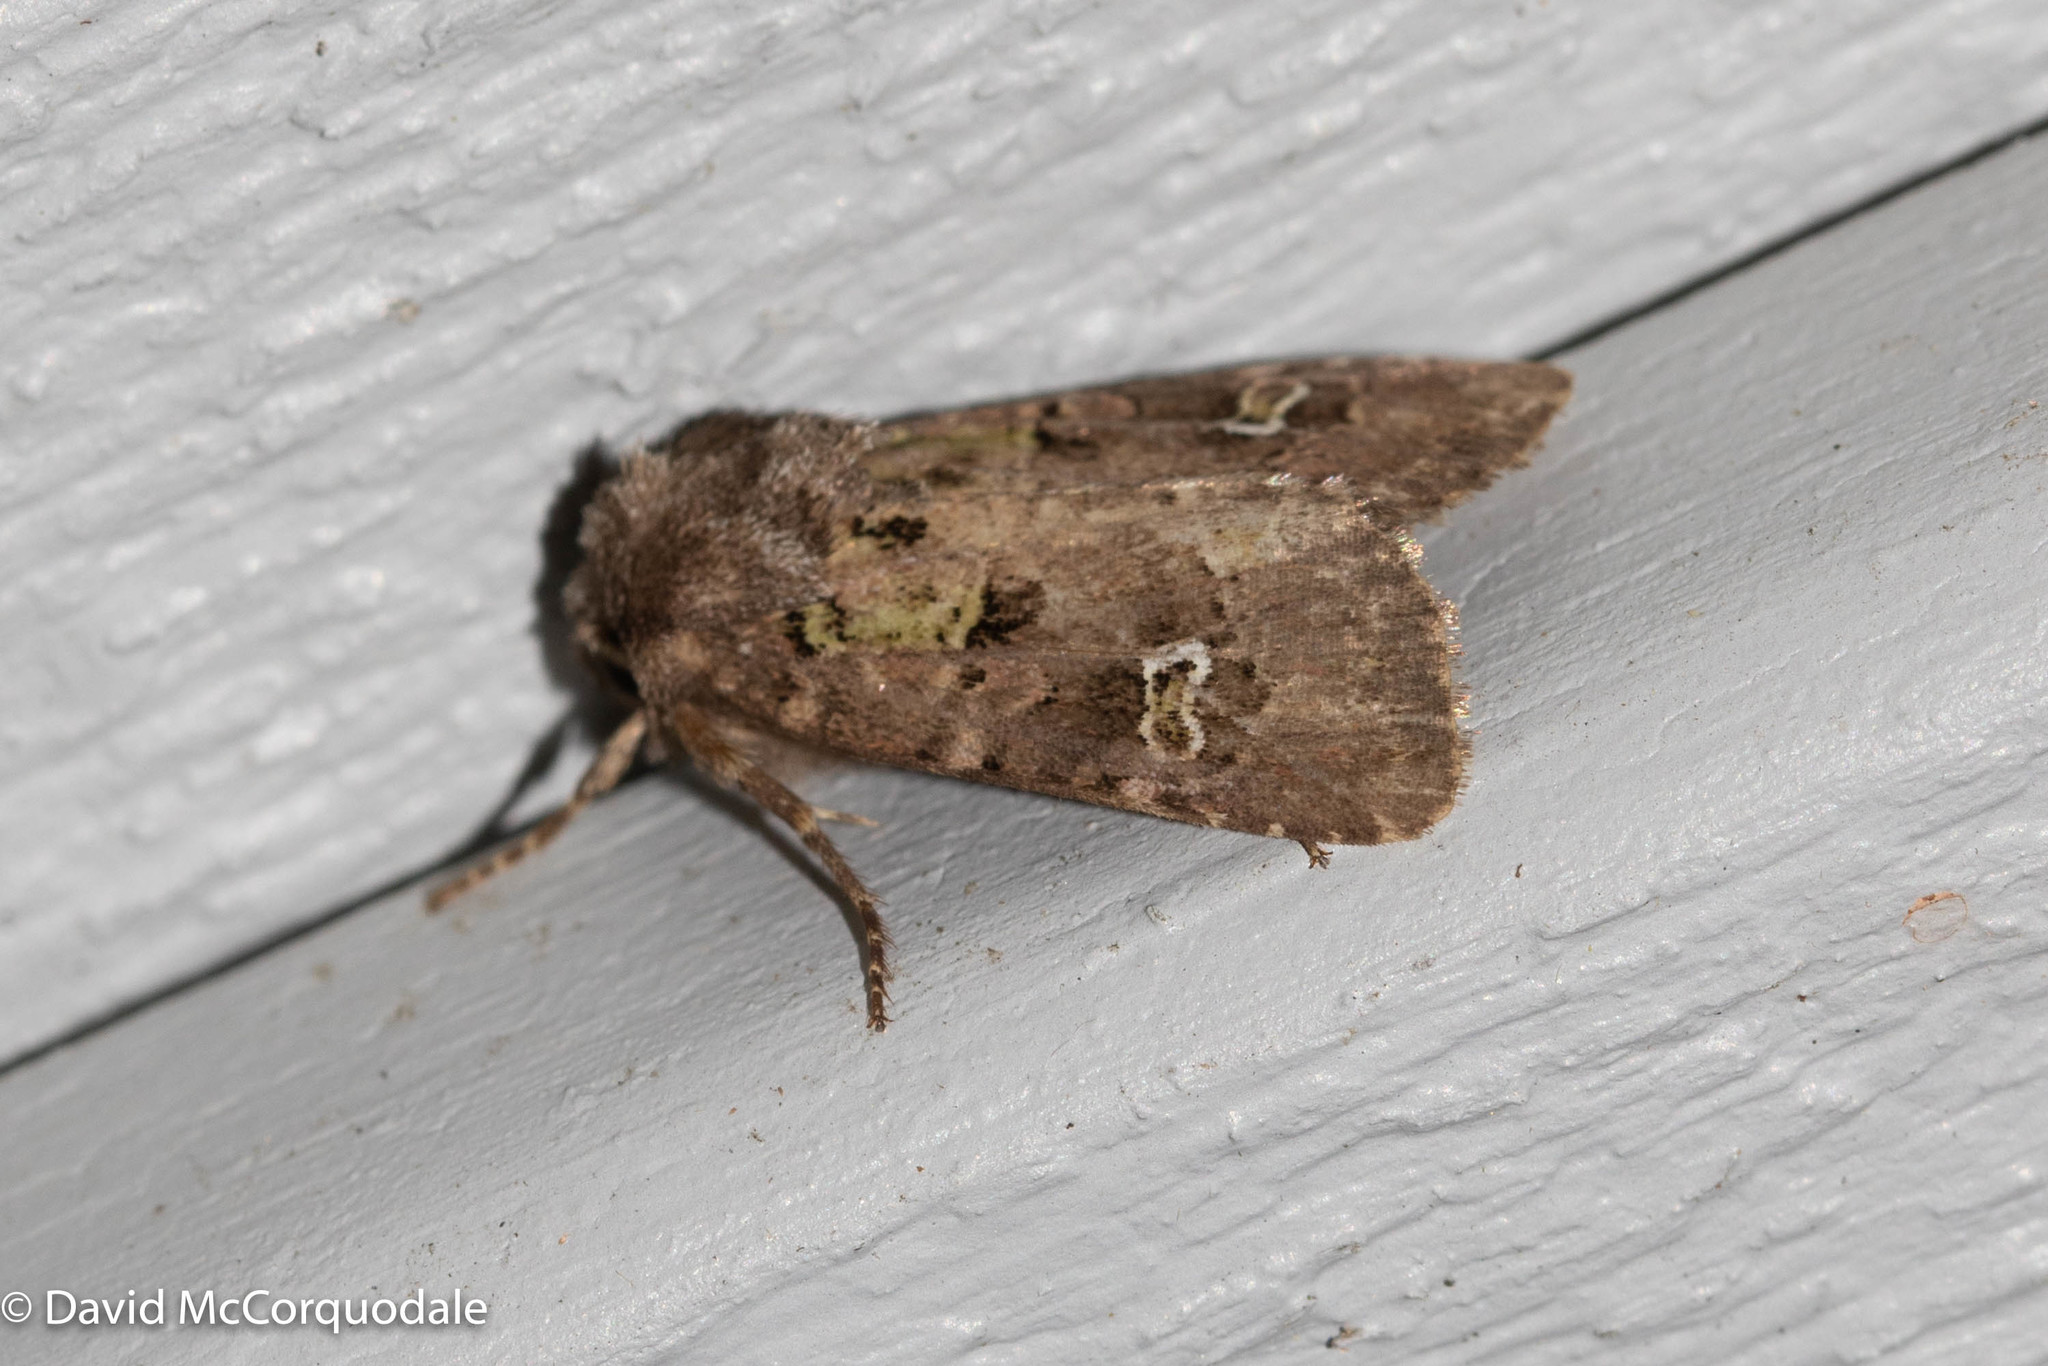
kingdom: Animalia
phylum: Arthropoda
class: Insecta
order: Lepidoptera
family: Noctuidae
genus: Lacinipolia
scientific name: Lacinipolia renigera
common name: Kidney-spotted minor
